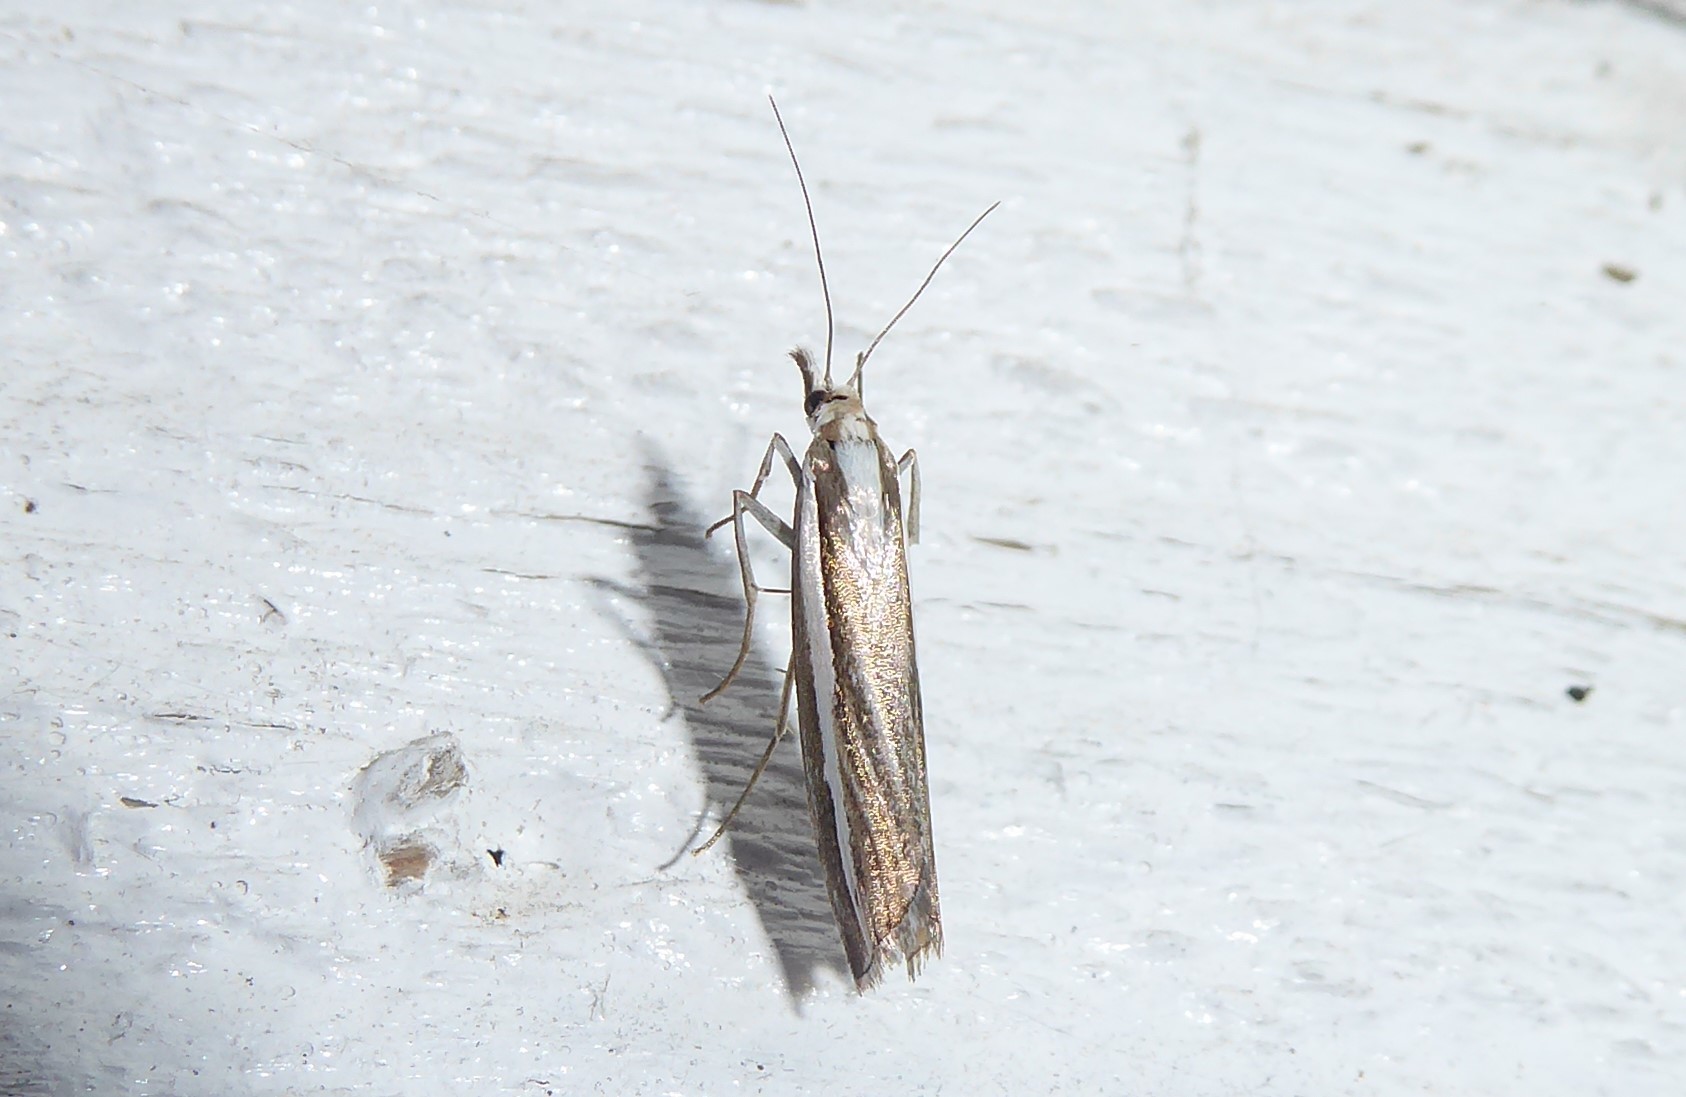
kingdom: Animalia
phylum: Arthropoda
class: Insecta
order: Lepidoptera
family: Crambidae
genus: Orocrambus
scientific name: Orocrambus vittellus
